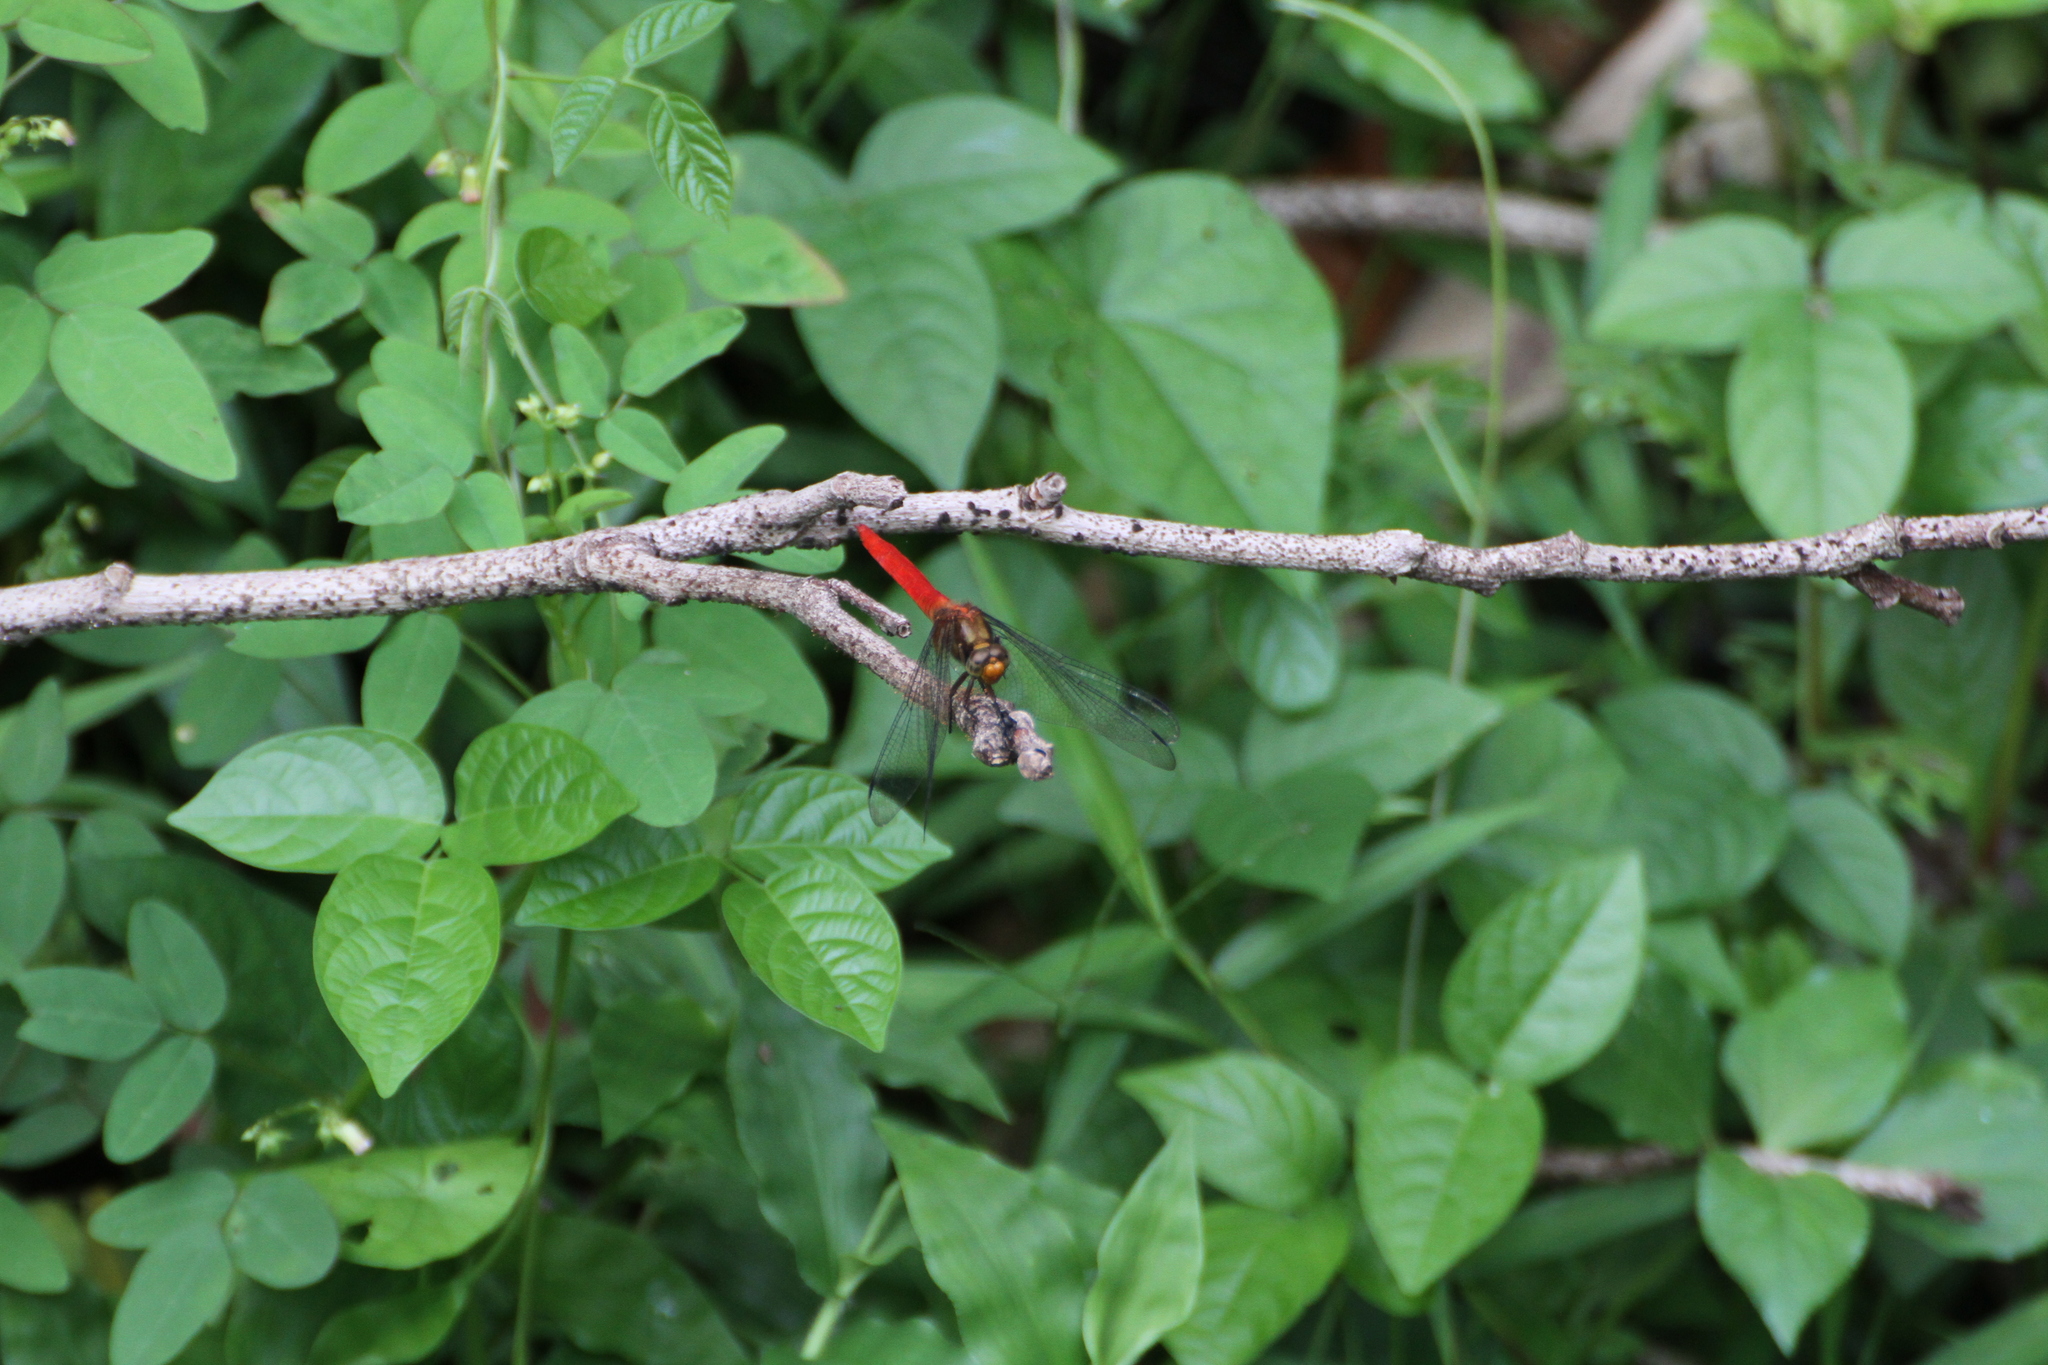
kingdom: Animalia
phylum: Arthropoda
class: Insecta
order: Odonata
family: Libellulidae
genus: Orthetrum
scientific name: Orthetrum testaceum
